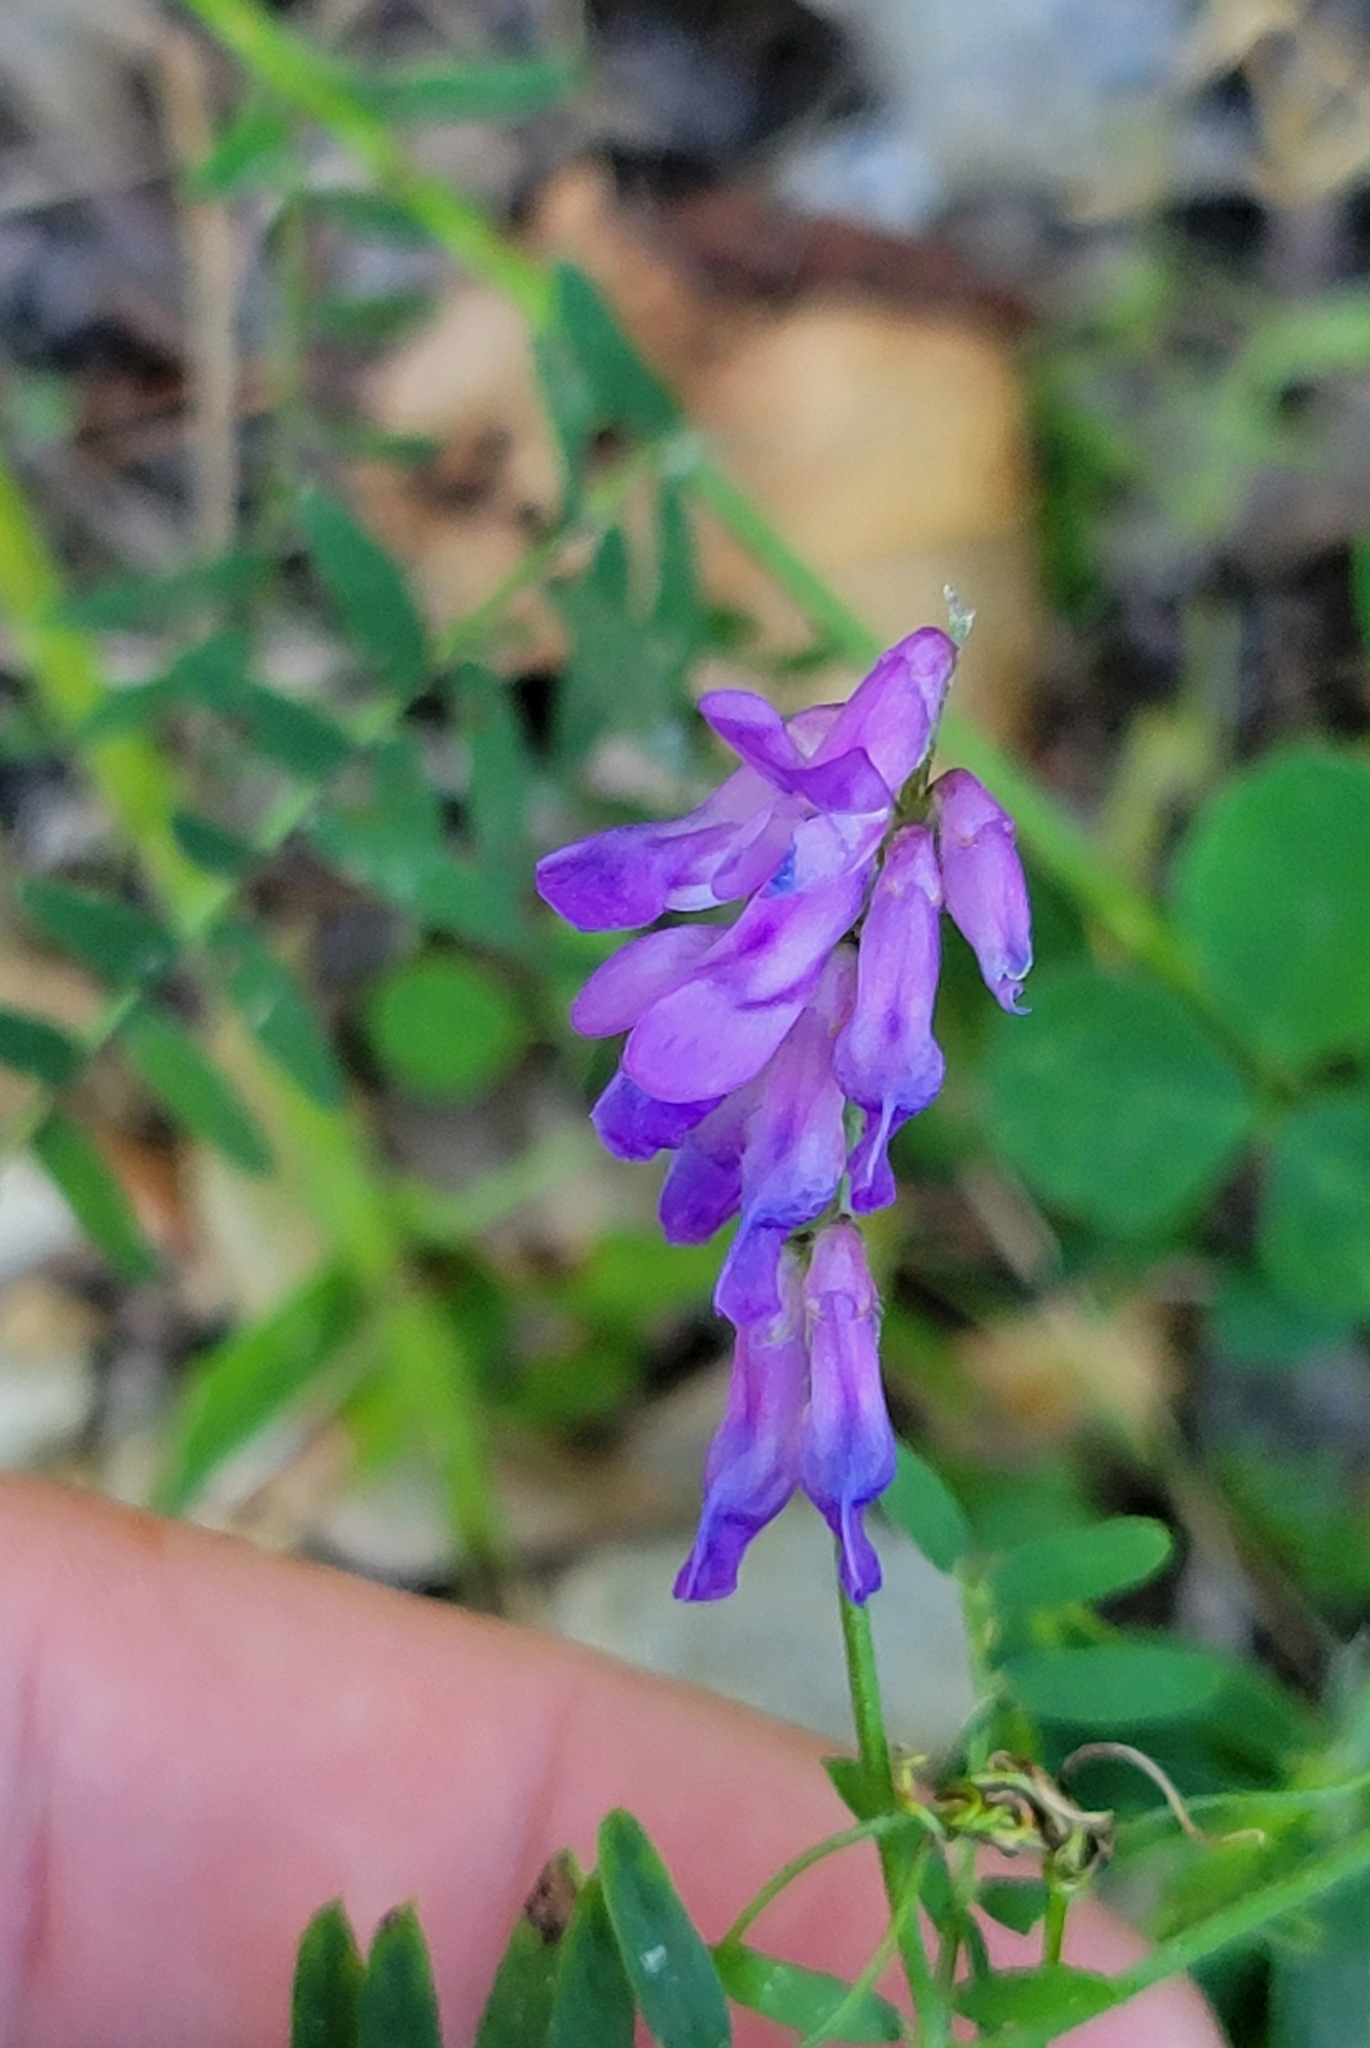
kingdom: Plantae
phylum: Tracheophyta
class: Magnoliopsida
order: Fabales
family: Fabaceae
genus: Vicia
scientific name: Vicia cracca
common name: Bird vetch
